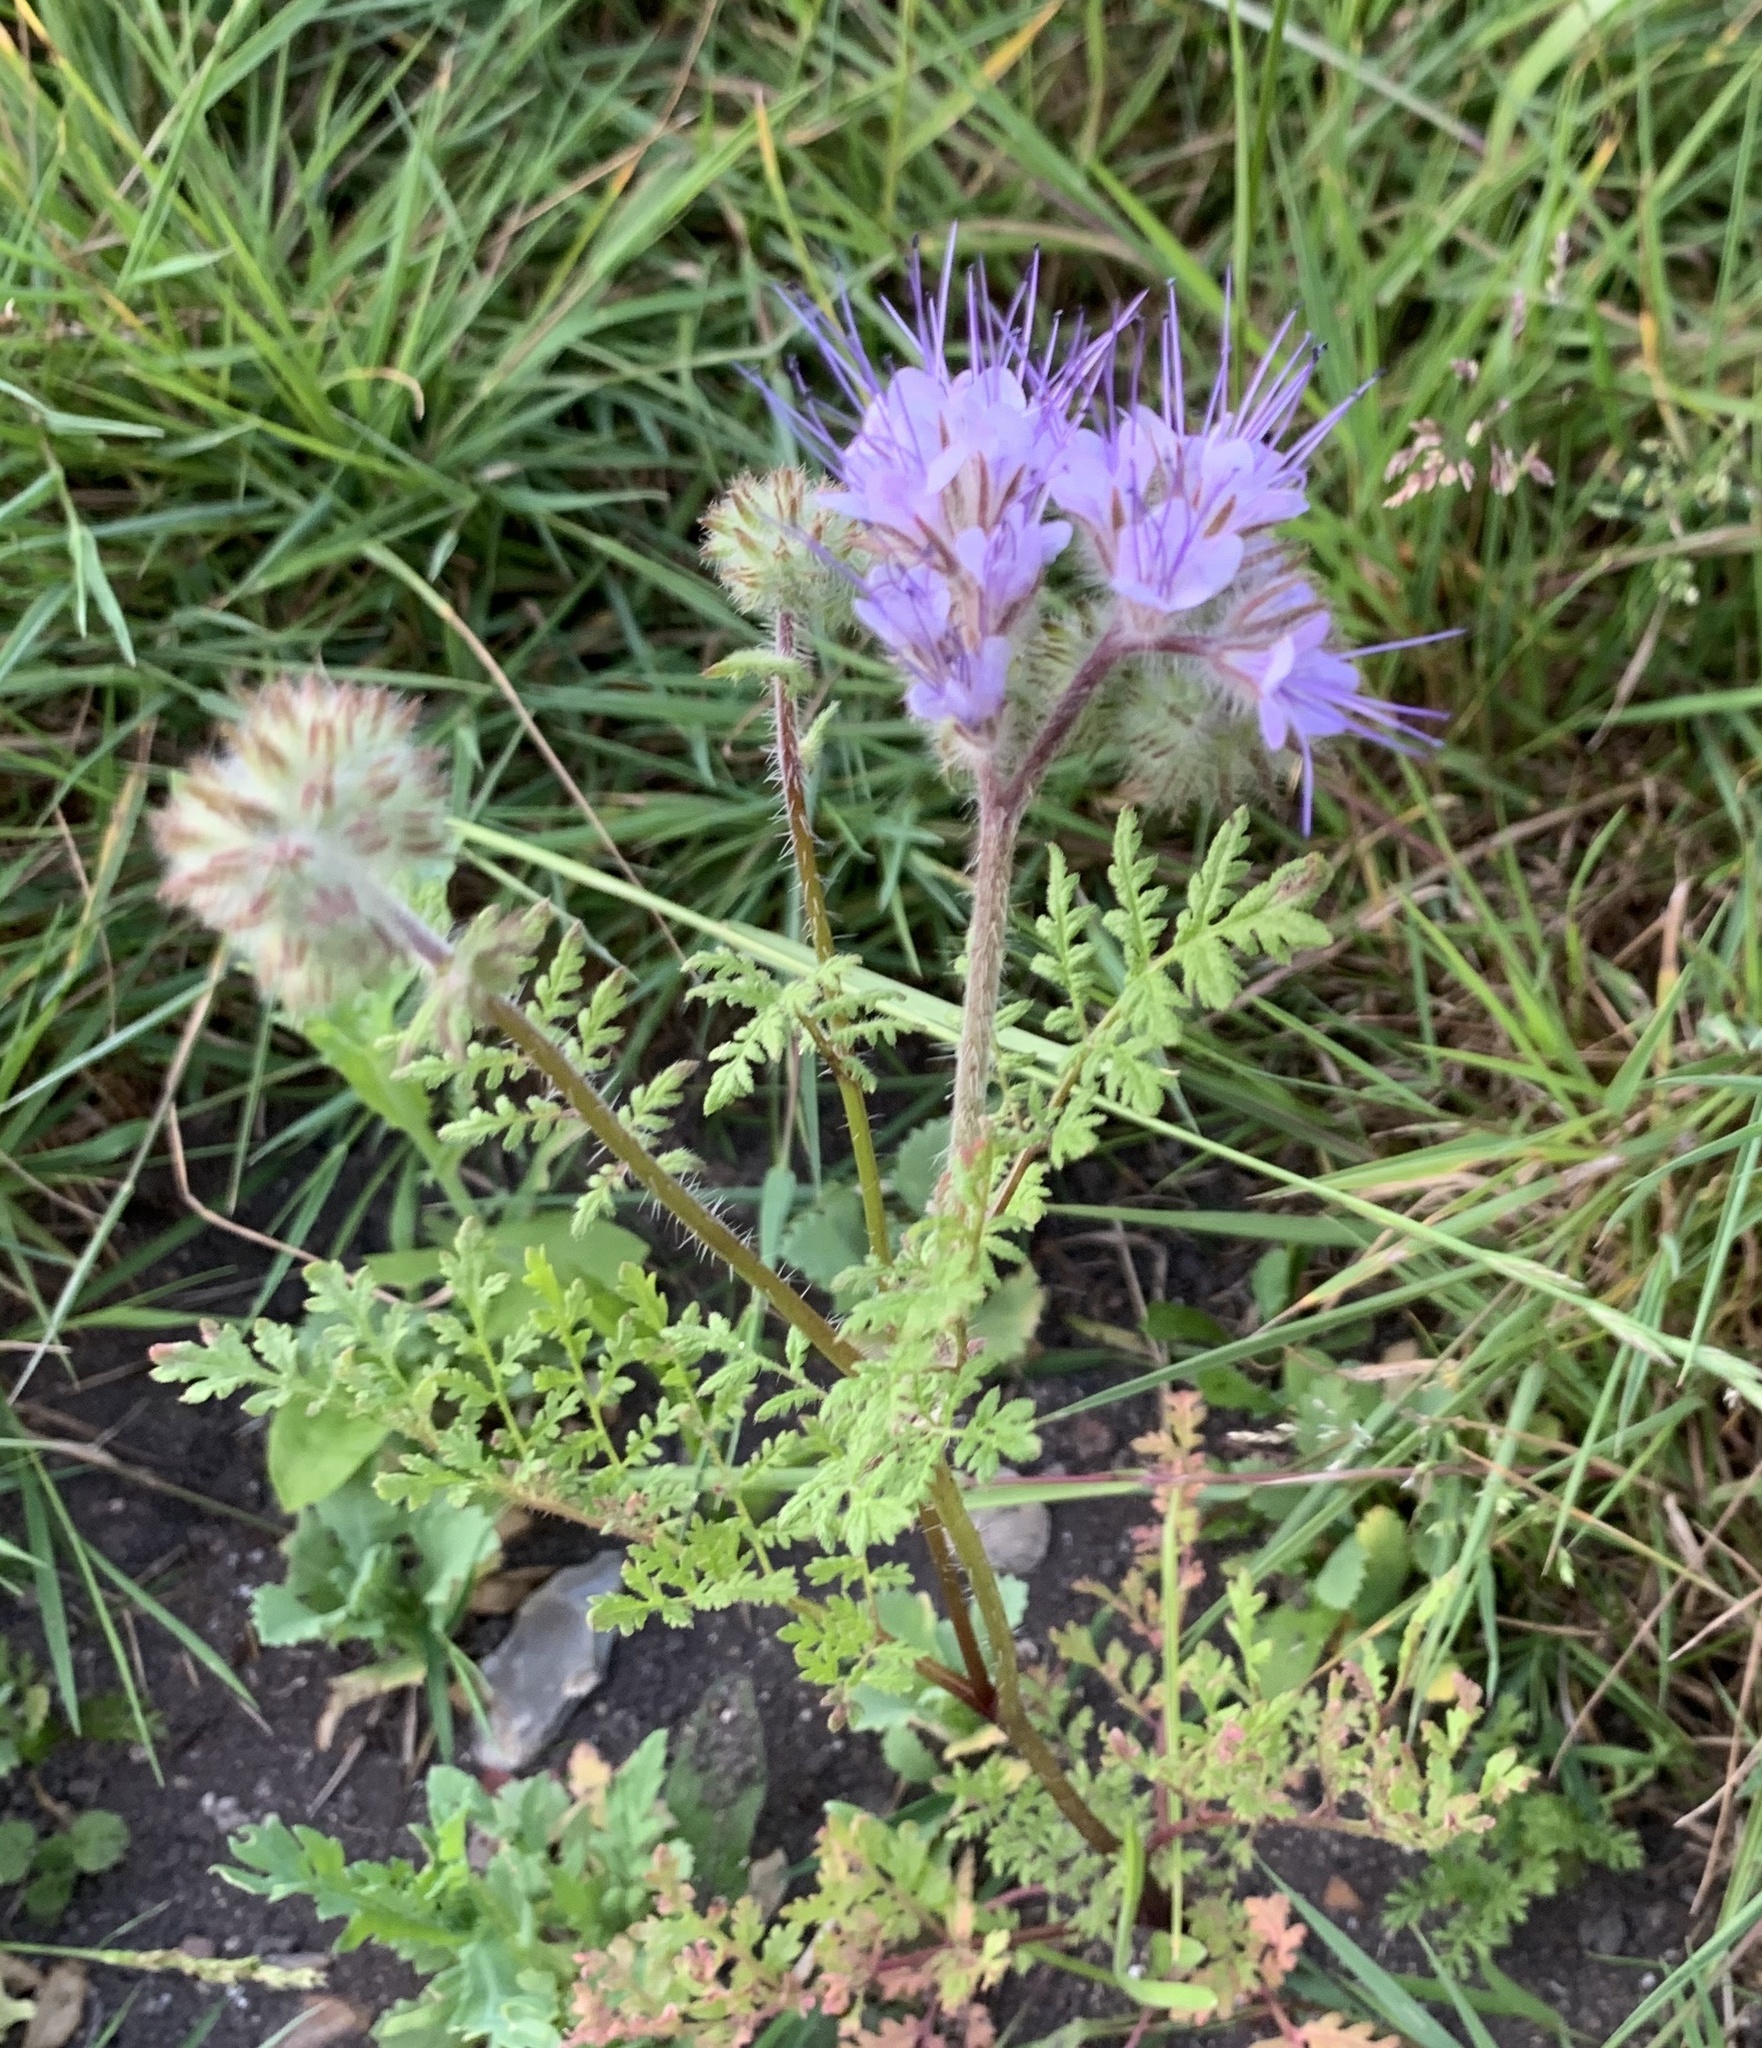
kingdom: Plantae
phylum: Tracheophyta
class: Magnoliopsida
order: Boraginales
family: Hydrophyllaceae
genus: Phacelia
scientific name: Phacelia tanacetifolia
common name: Phacelia
